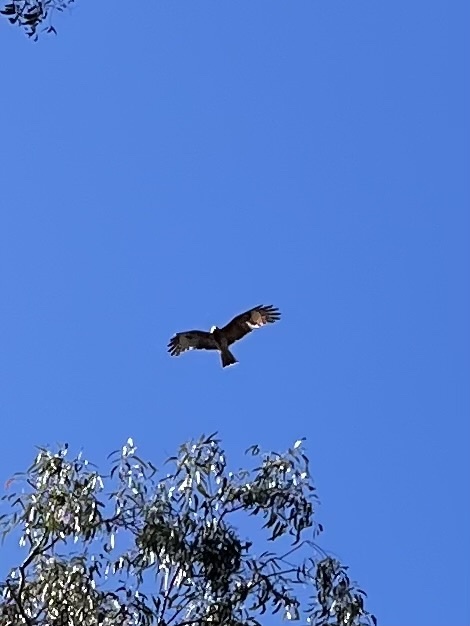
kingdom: Animalia
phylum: Chordata
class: Aves
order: Accipitriformes
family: Accipitridae
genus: Lophoictinia
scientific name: Lophoictinia isura
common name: Square-tailed kite
